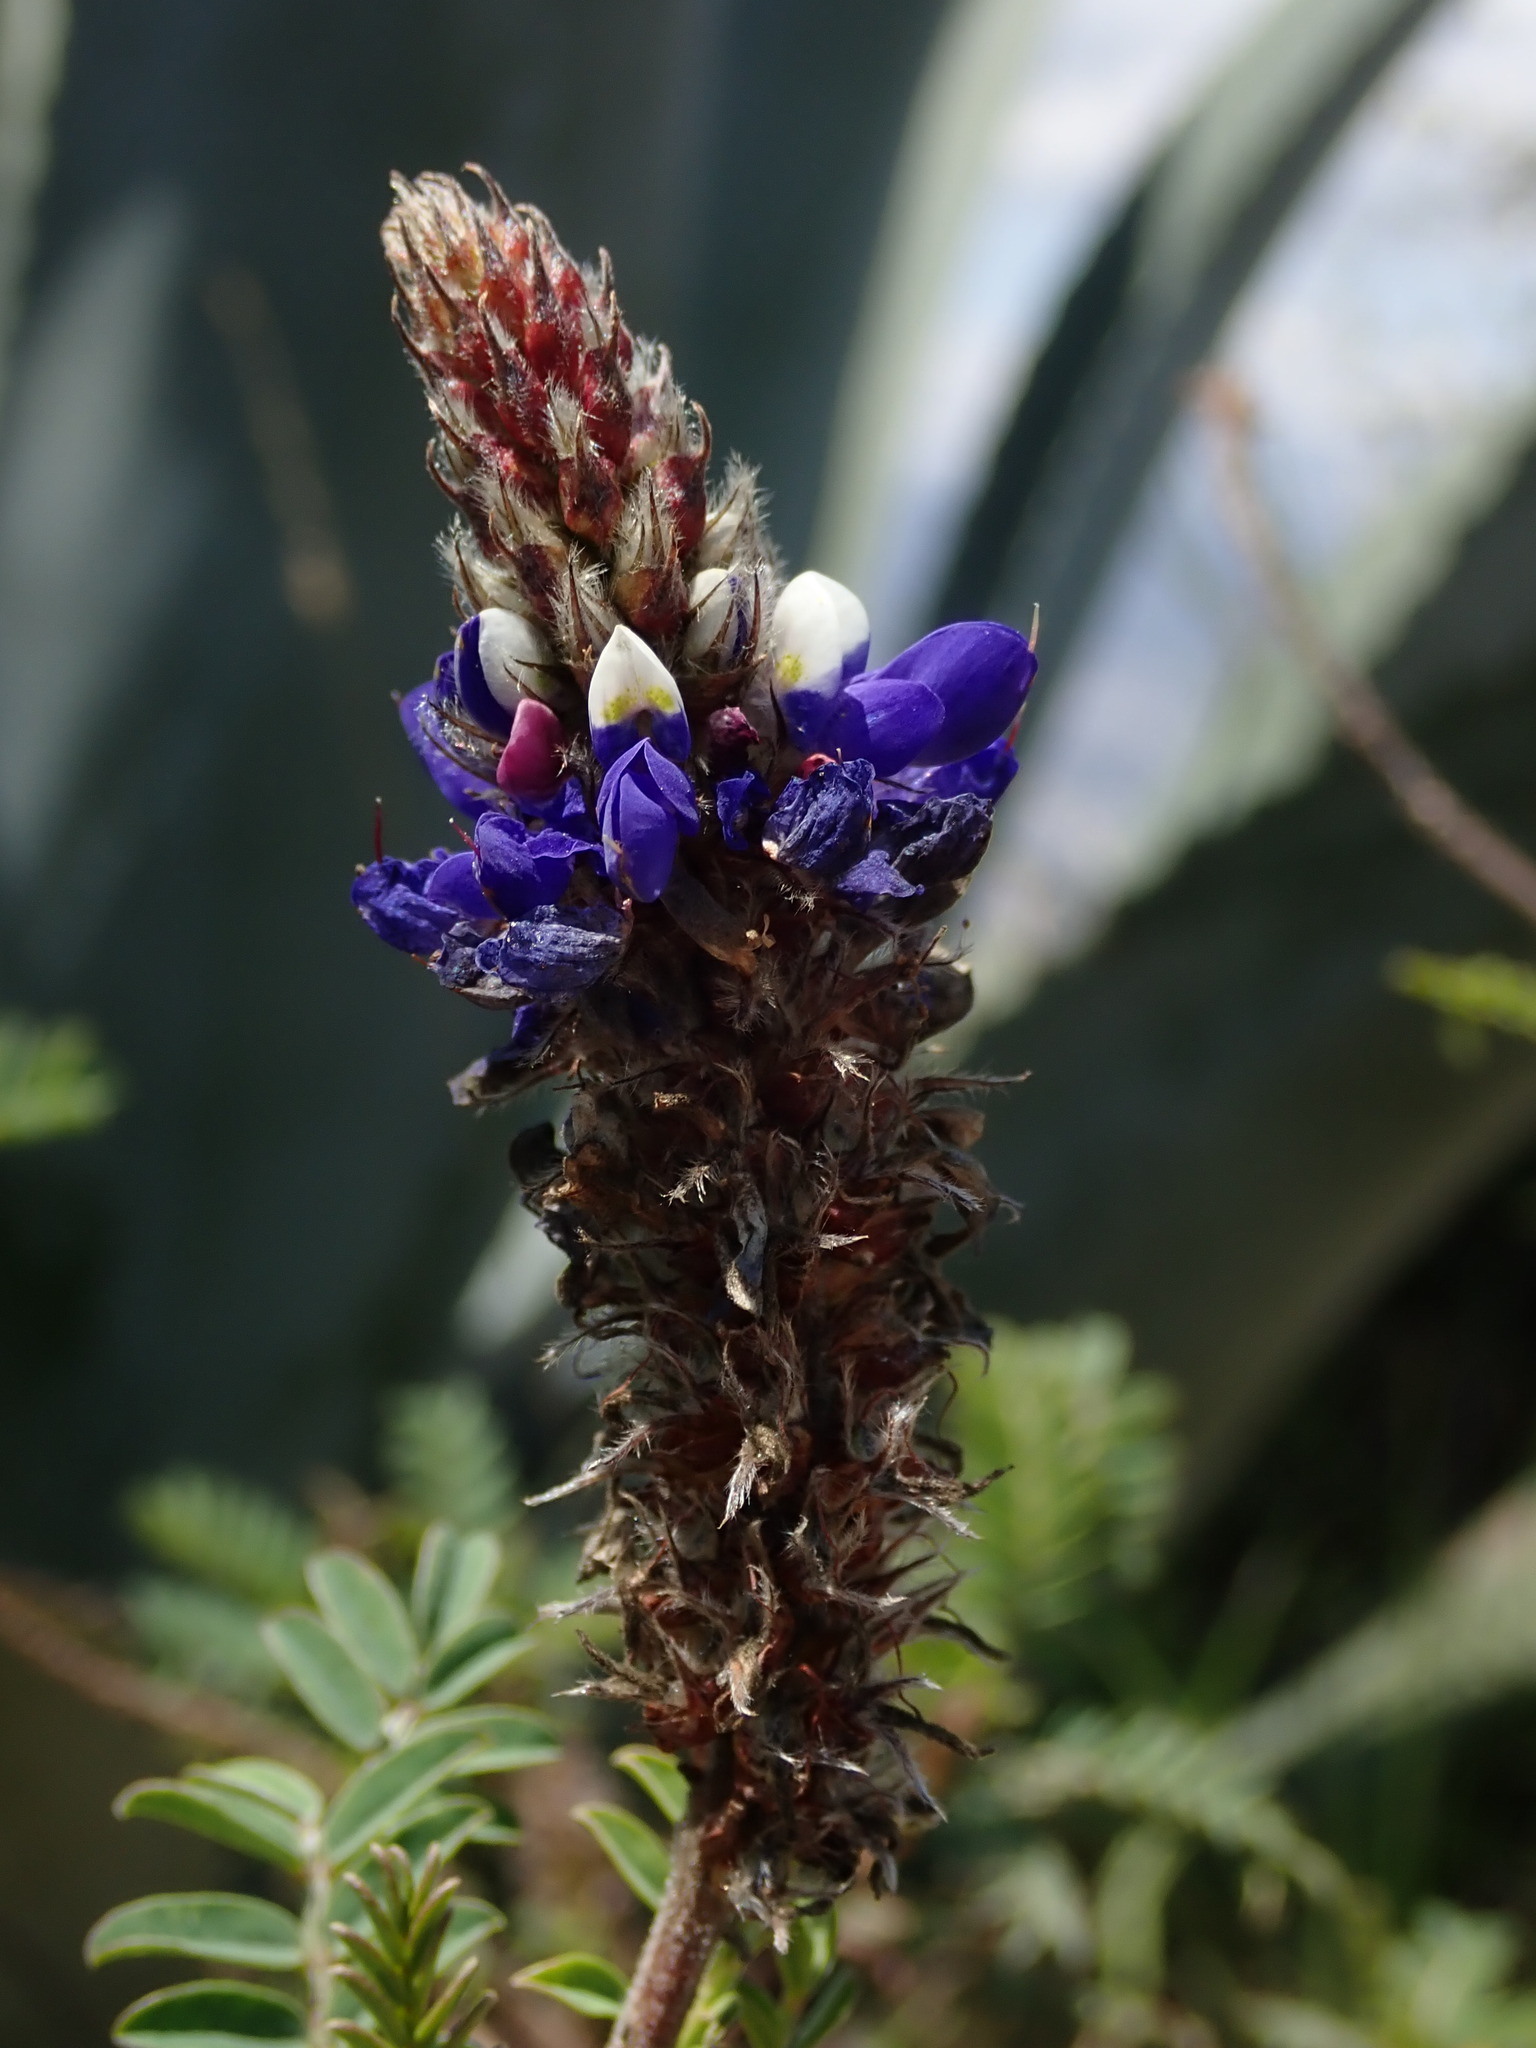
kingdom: Plantae
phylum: Tracheophyta
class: Magnoliopsida
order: Fabales
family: Fabaceae
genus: Dalea
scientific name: Dalea coerulea
